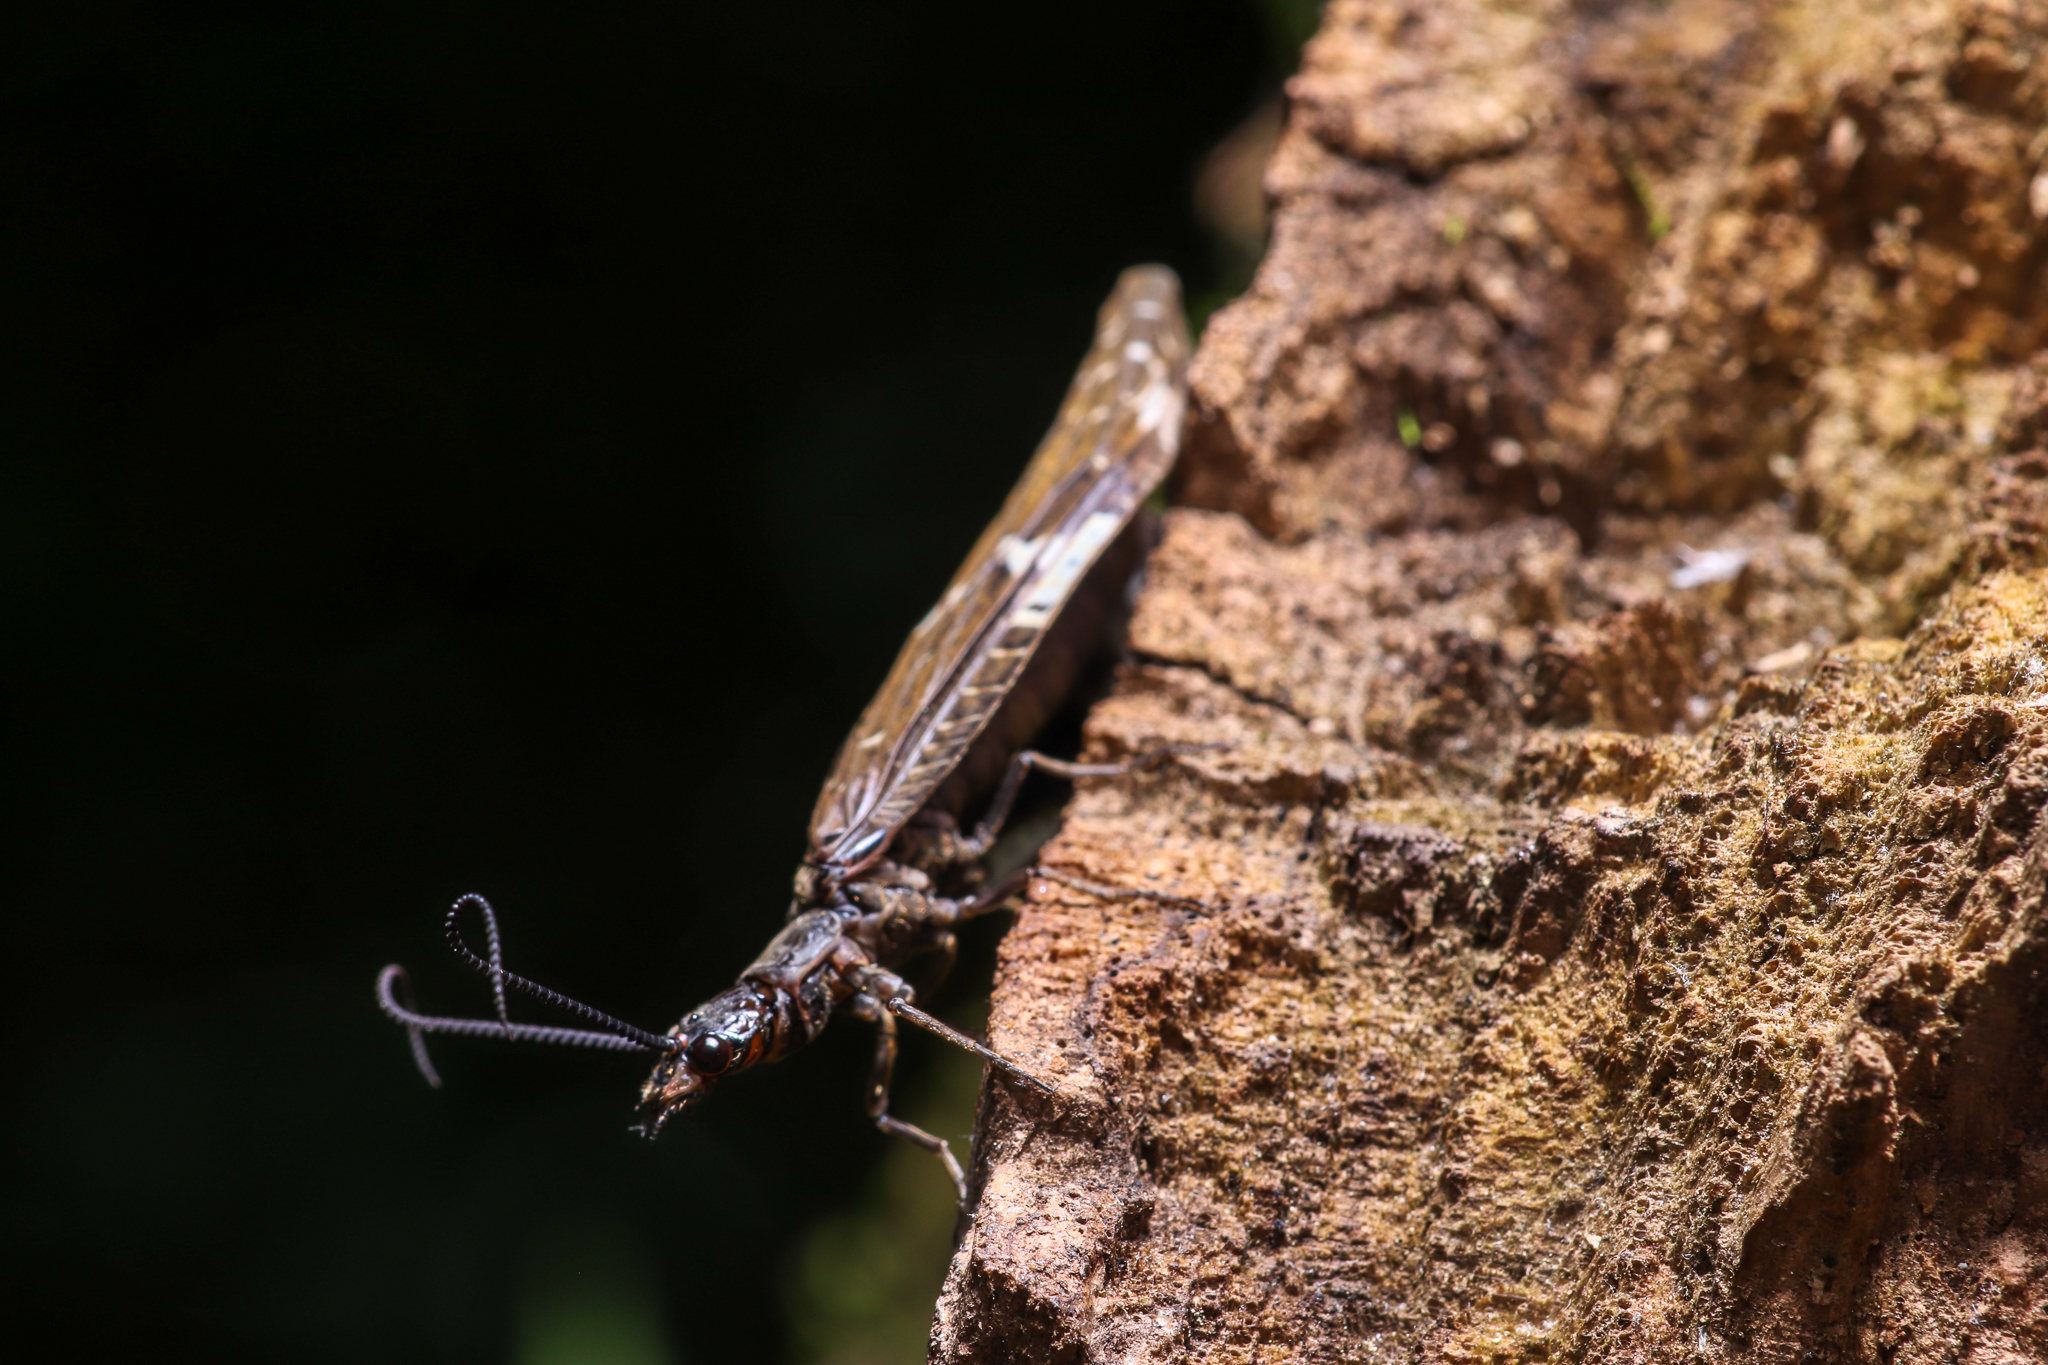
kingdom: Animalia
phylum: Arthropoda
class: Insecta
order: Megaloptera
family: Corydalidae
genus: Nigronia
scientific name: Nigronia serricornis
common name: Serrate dark fishfly
